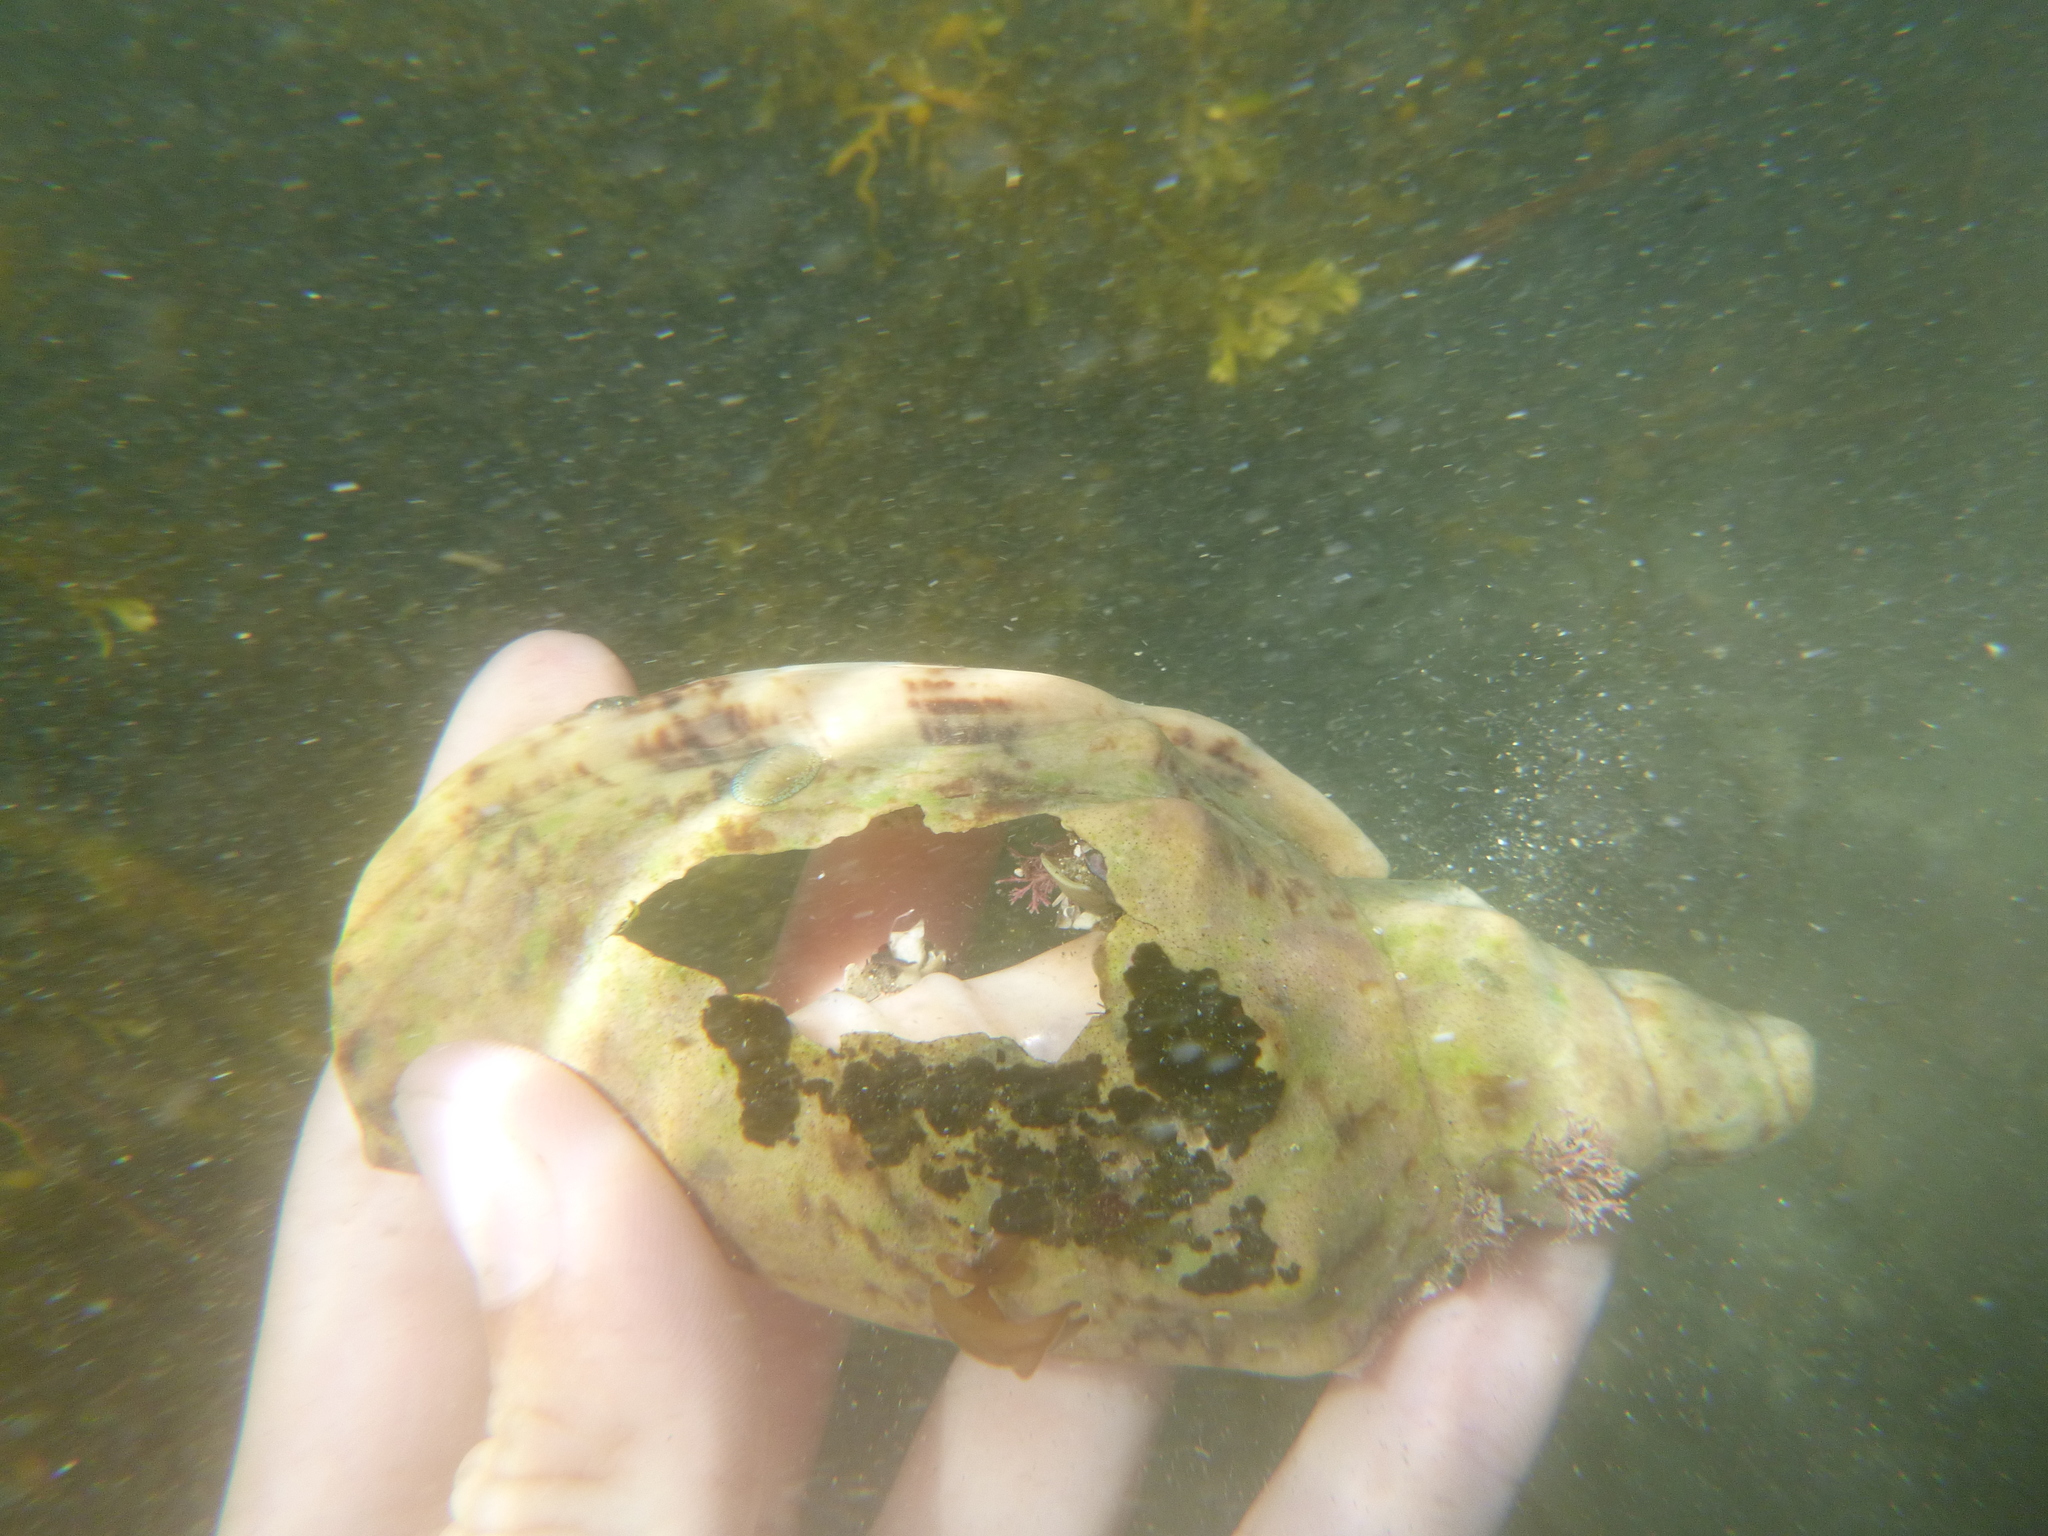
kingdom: Animalia
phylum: Mollusca
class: Gastropoda
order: Neogastropoda
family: Volutidae
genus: Alcithoe
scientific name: Alcithoe arabica
